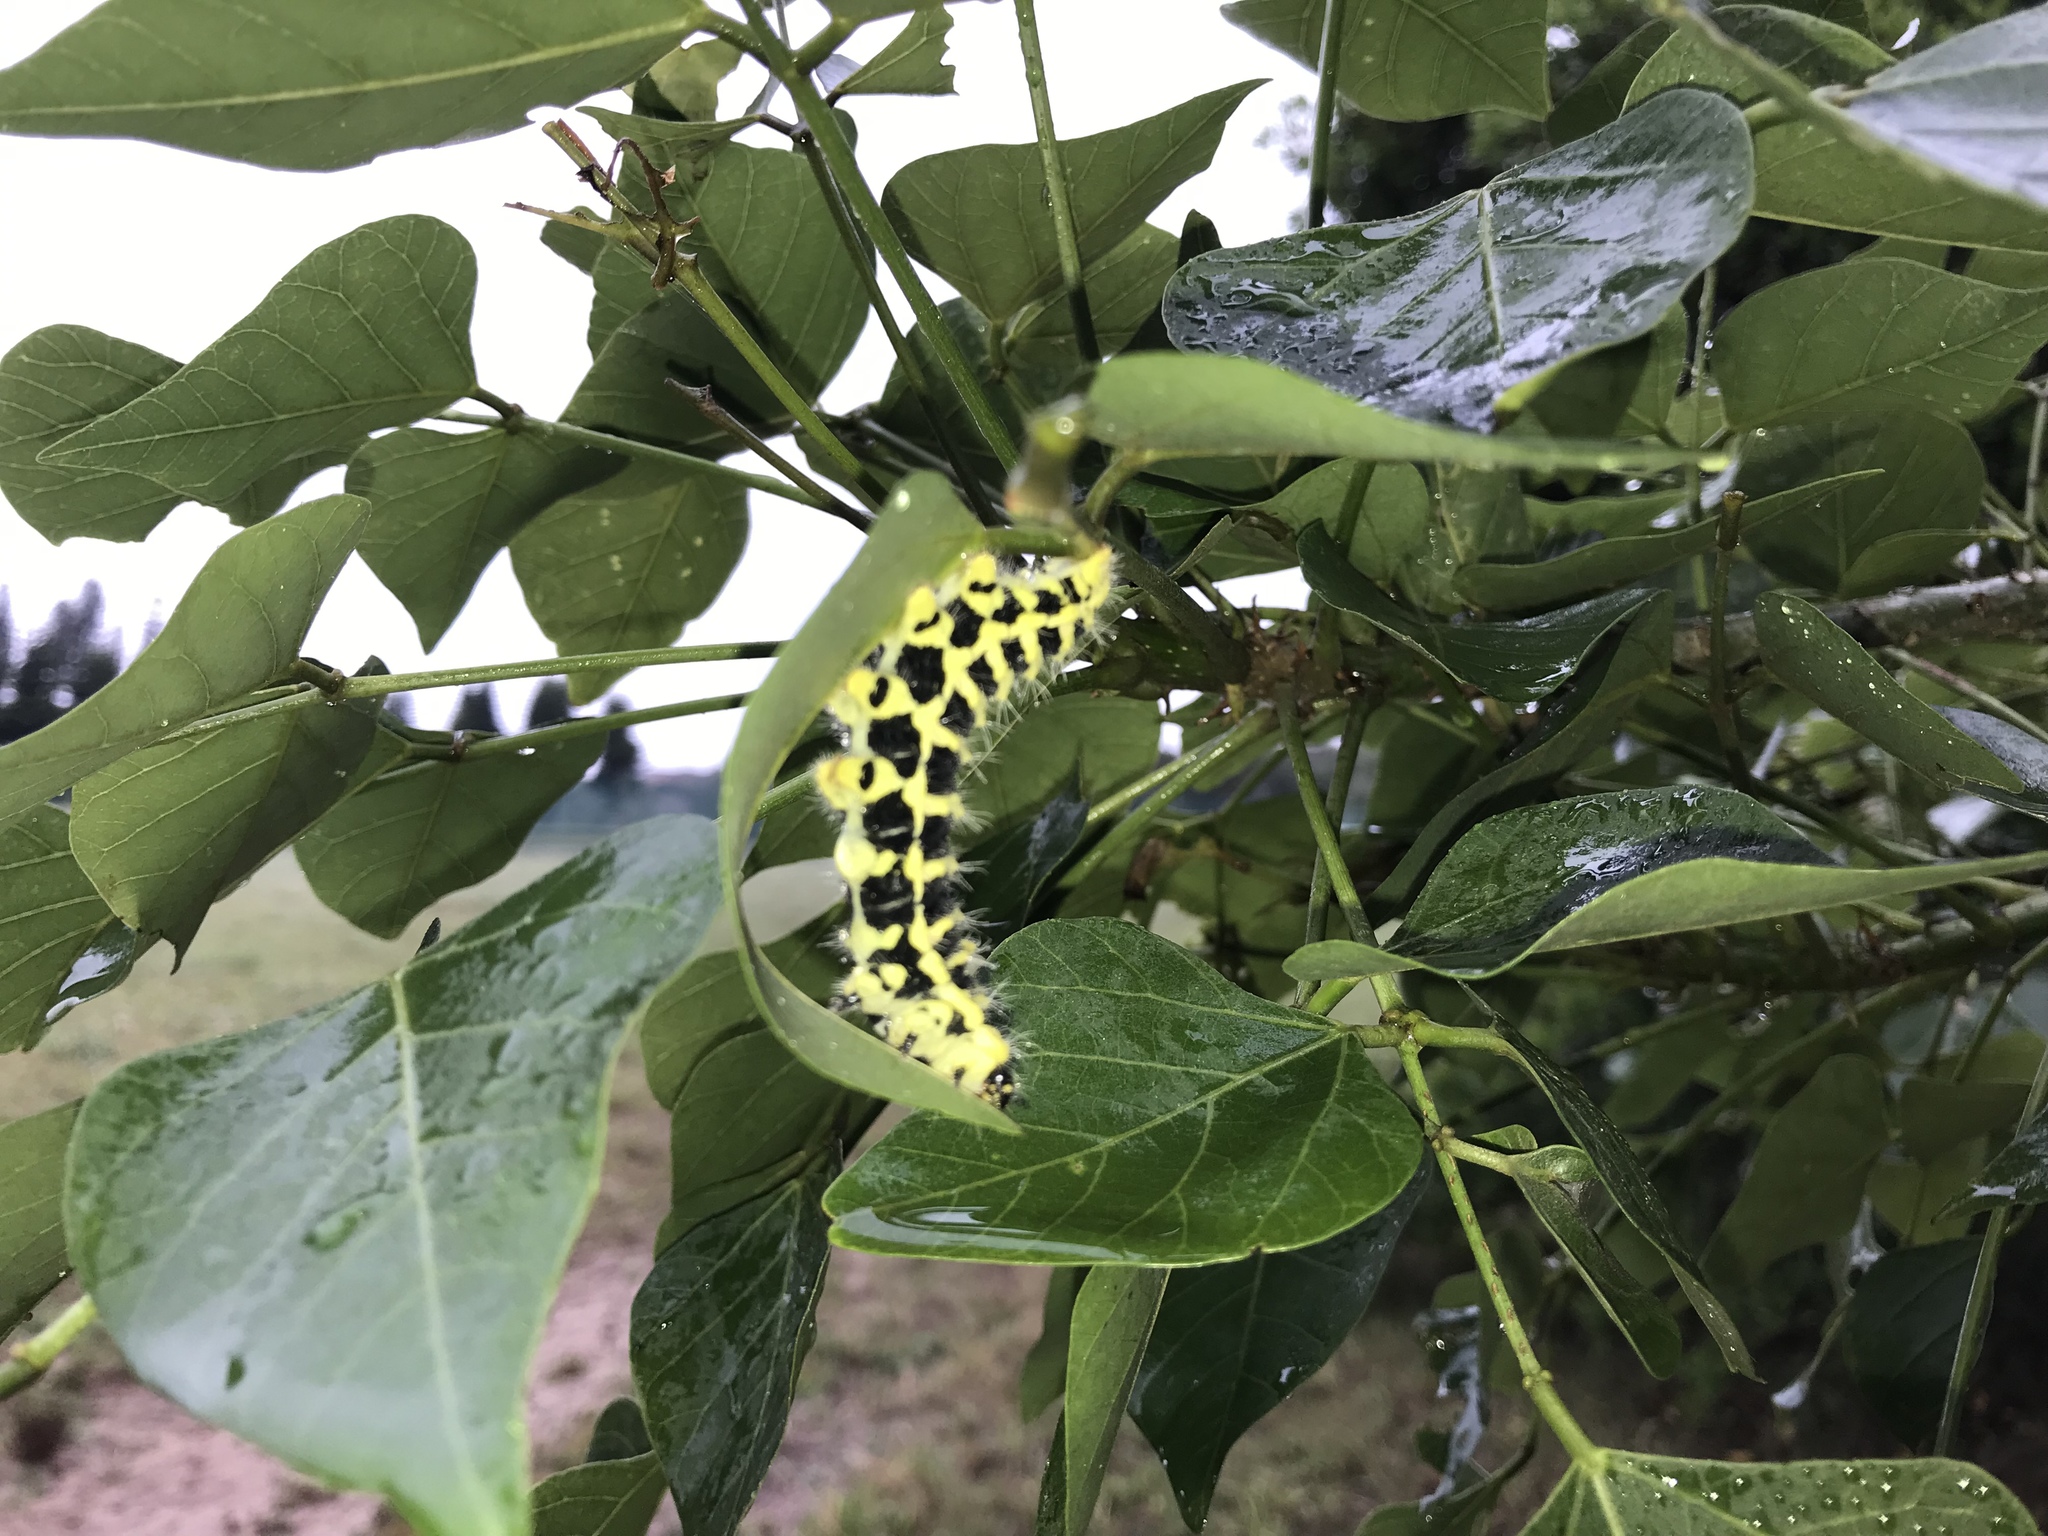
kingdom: Animalia
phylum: Arthropoda
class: Insecta
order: Lepidoptera
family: Saturniidae
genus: Urota
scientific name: Urota sinope
